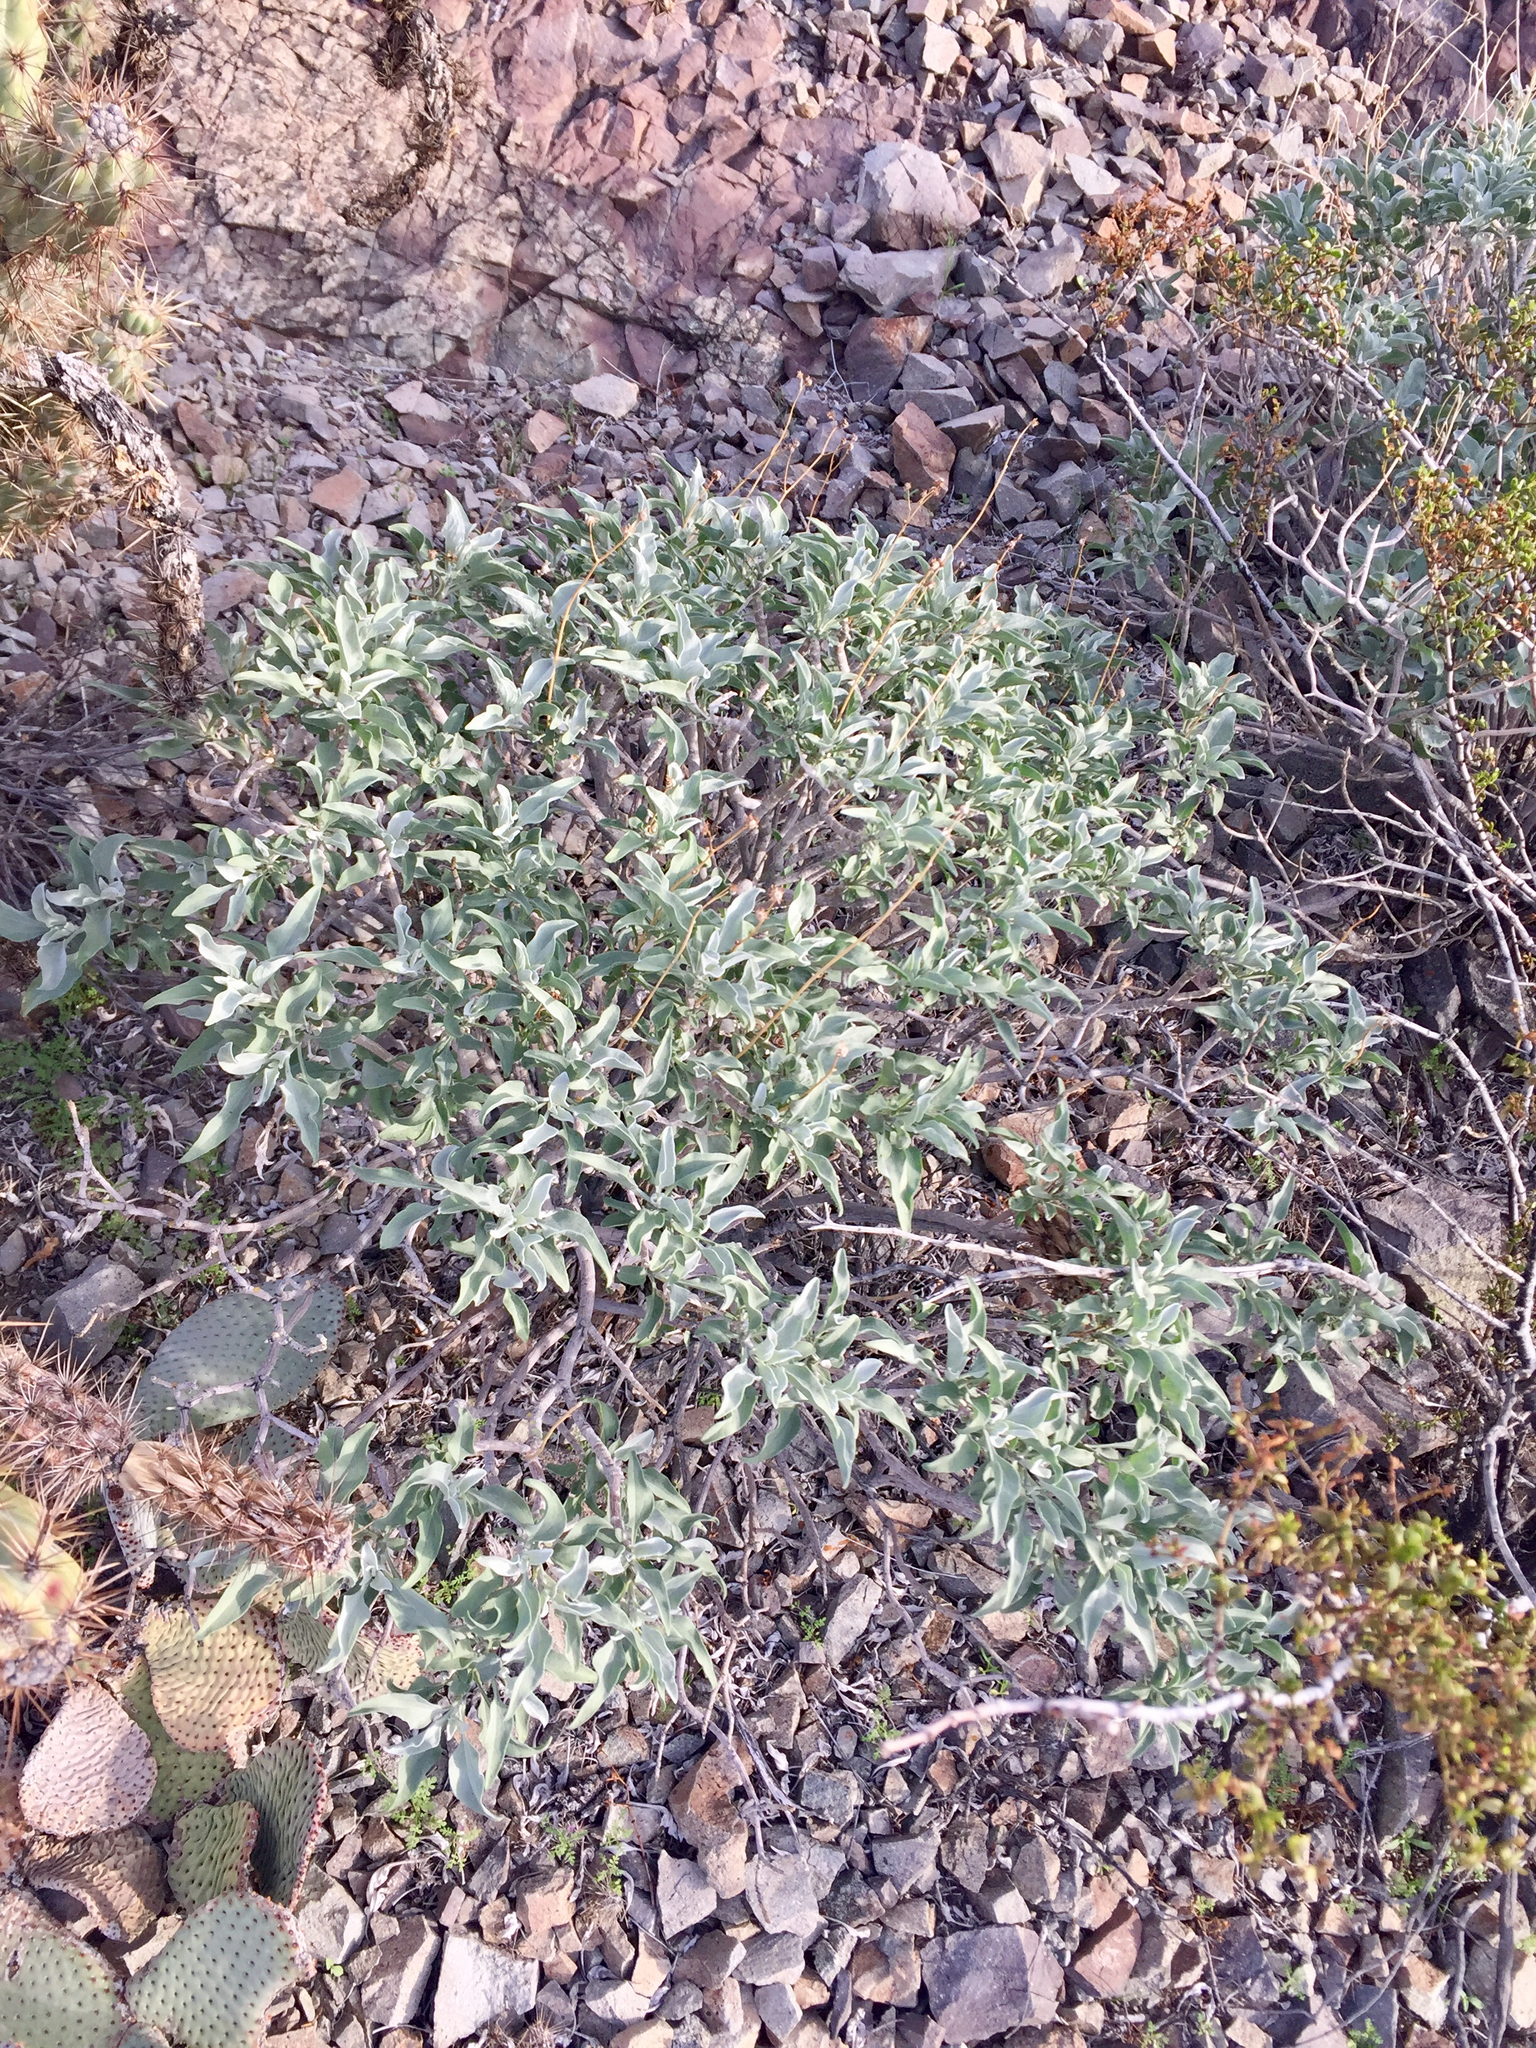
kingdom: Plantae
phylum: Tracheophyta
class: Magnoliopsida
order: Asterales
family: Asteraceae
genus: Encelia
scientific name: Encelia farinosa
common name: Brittlebush
